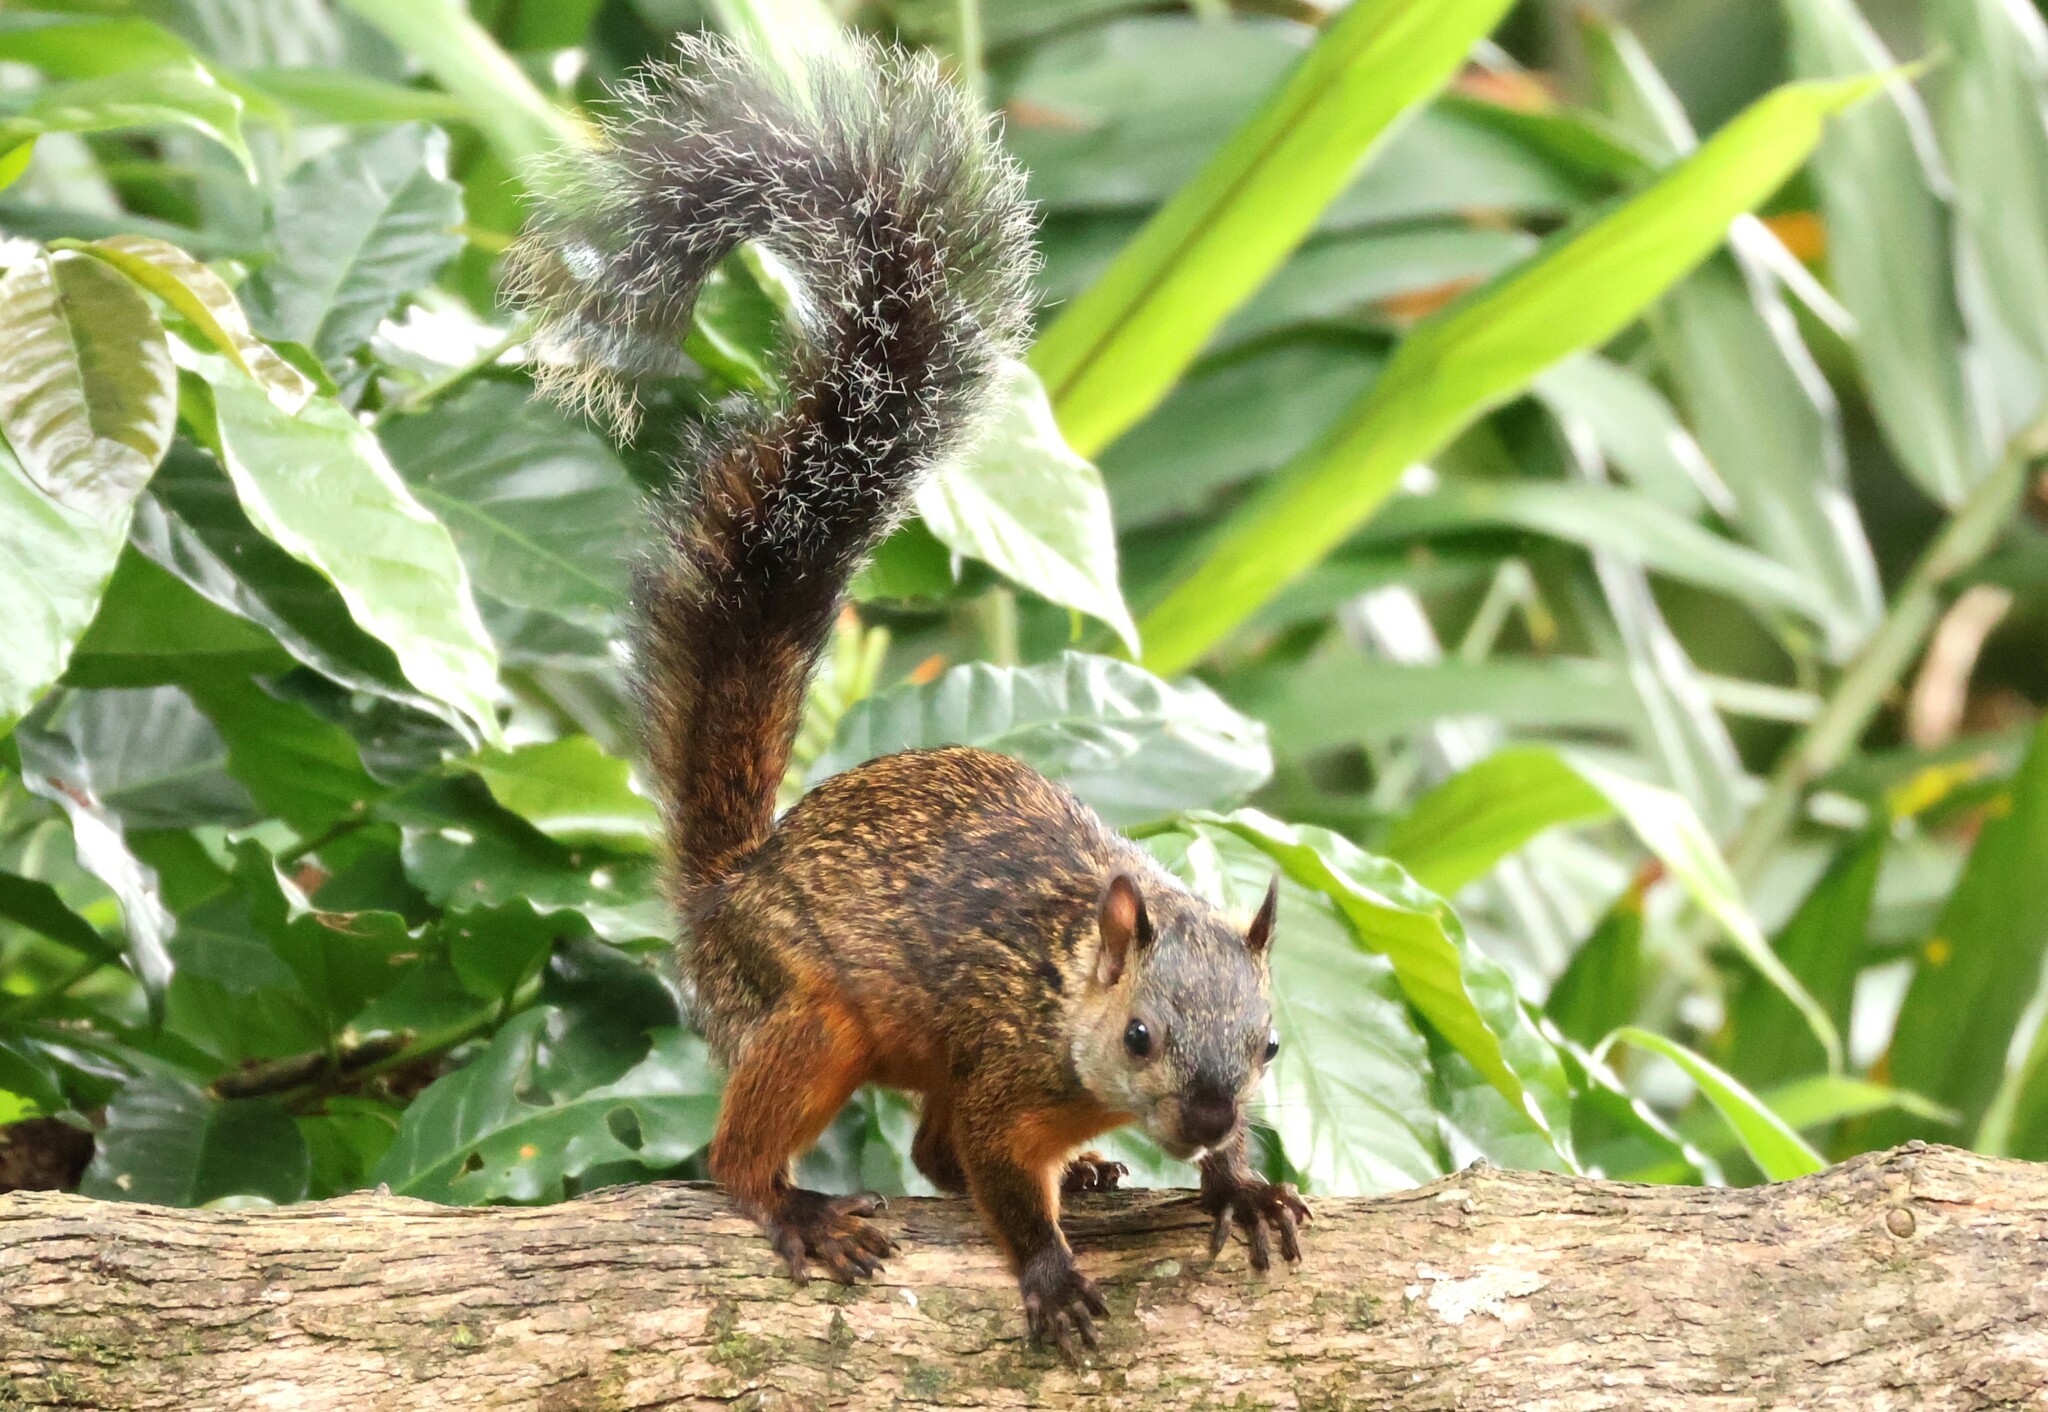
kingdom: Animalia
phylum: Chordata
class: Mammalia
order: Rodentia
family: Sciuridae
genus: Sciurus
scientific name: Sciurus variegatoides
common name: Variegated squirrel
